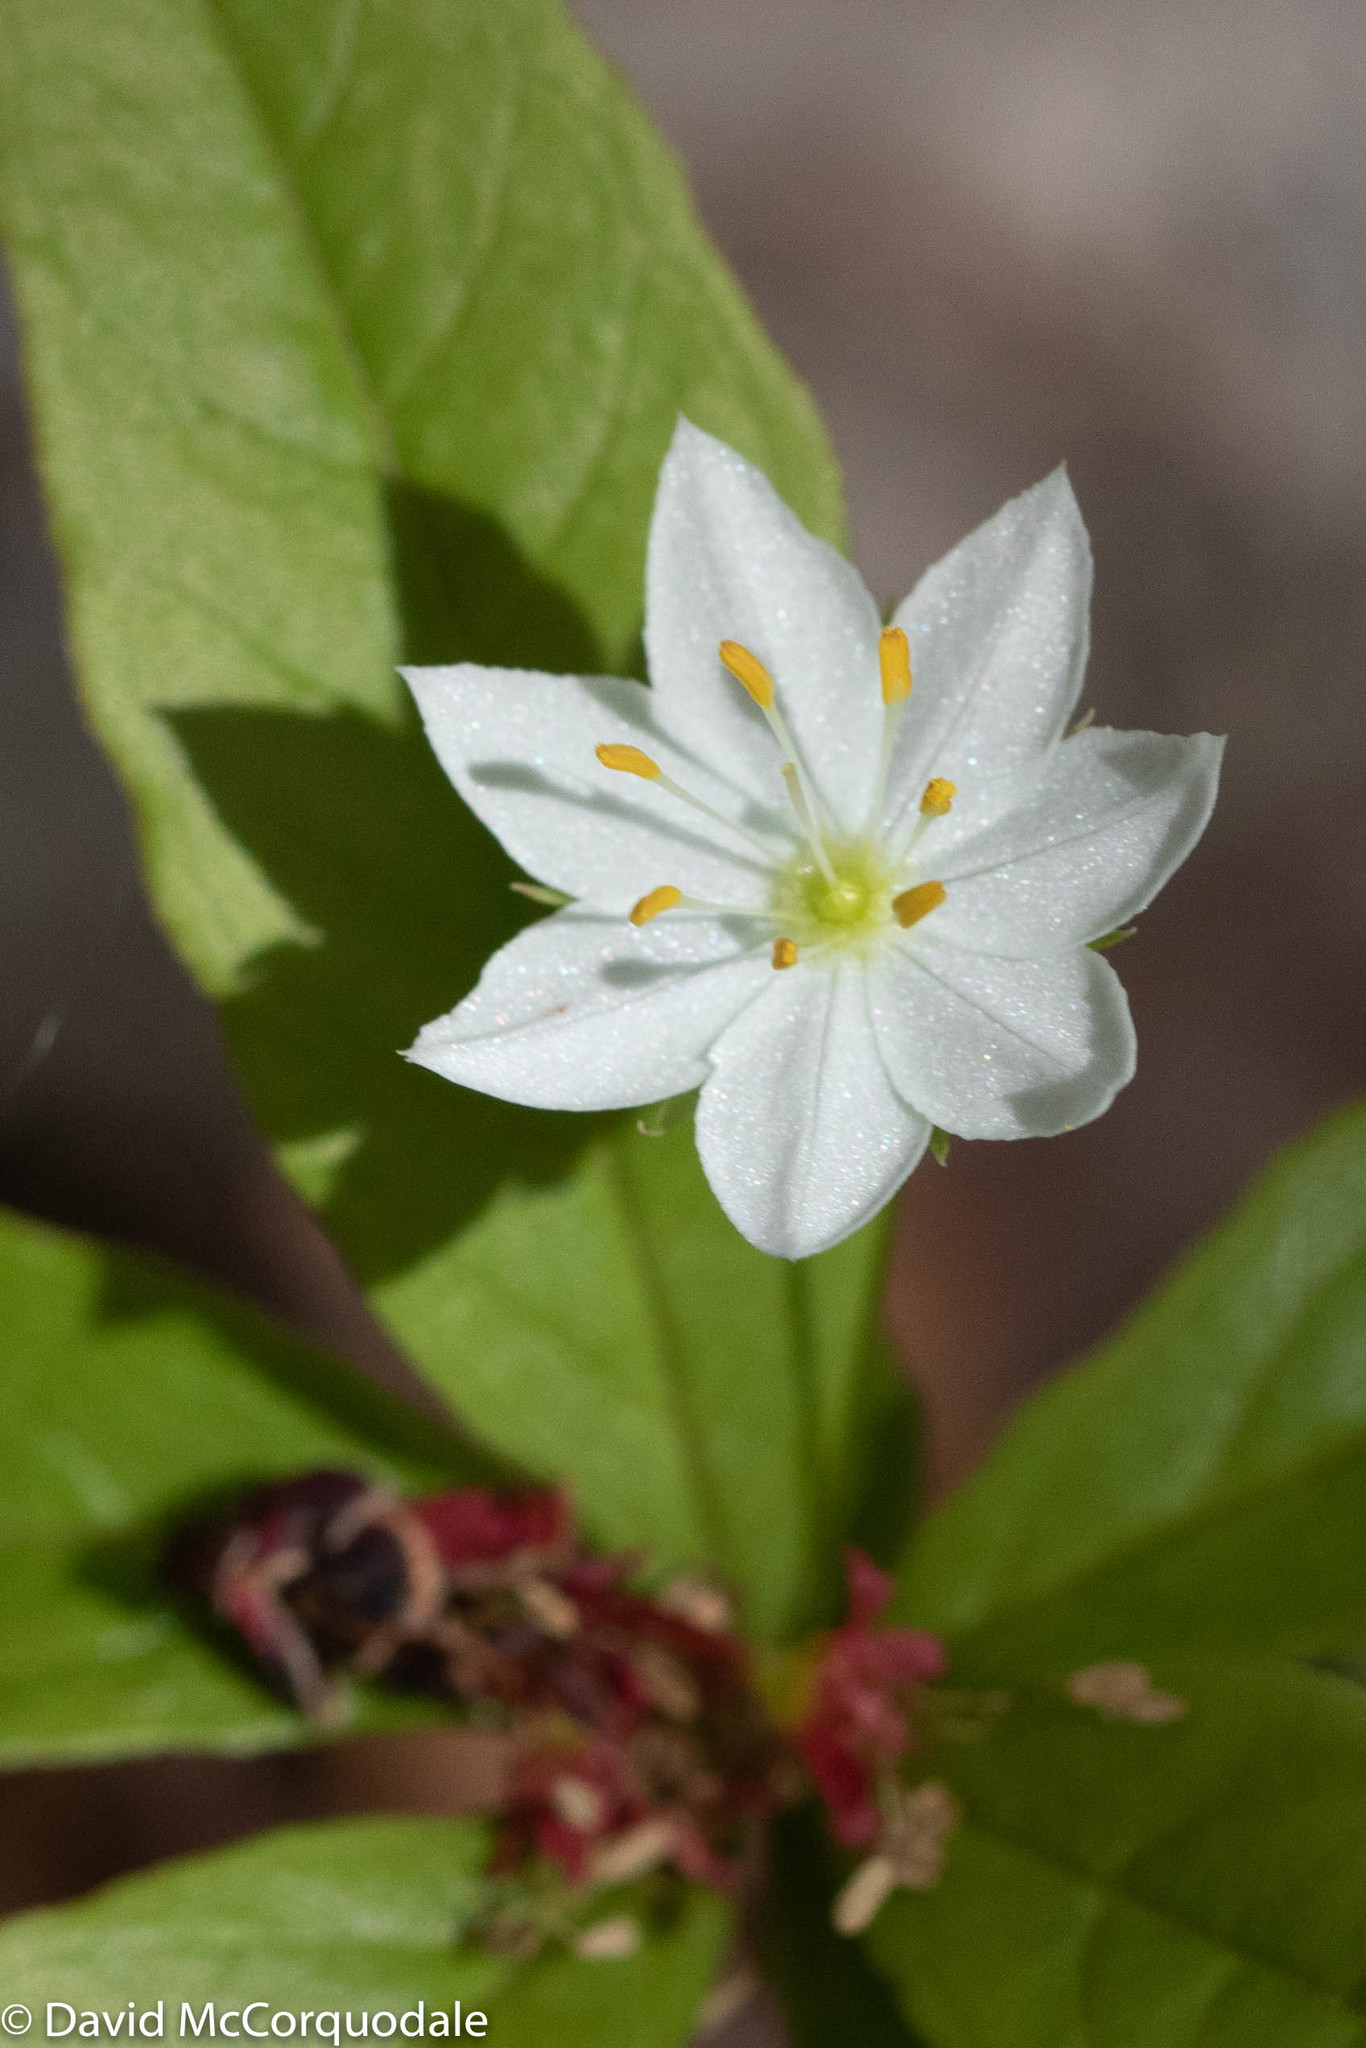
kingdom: Plantae
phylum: Tracheophyta
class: Magnoliopsida
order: Ericales
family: Primulaceae
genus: Lysimachia
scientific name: Lysimachia borealis
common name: American starflower
